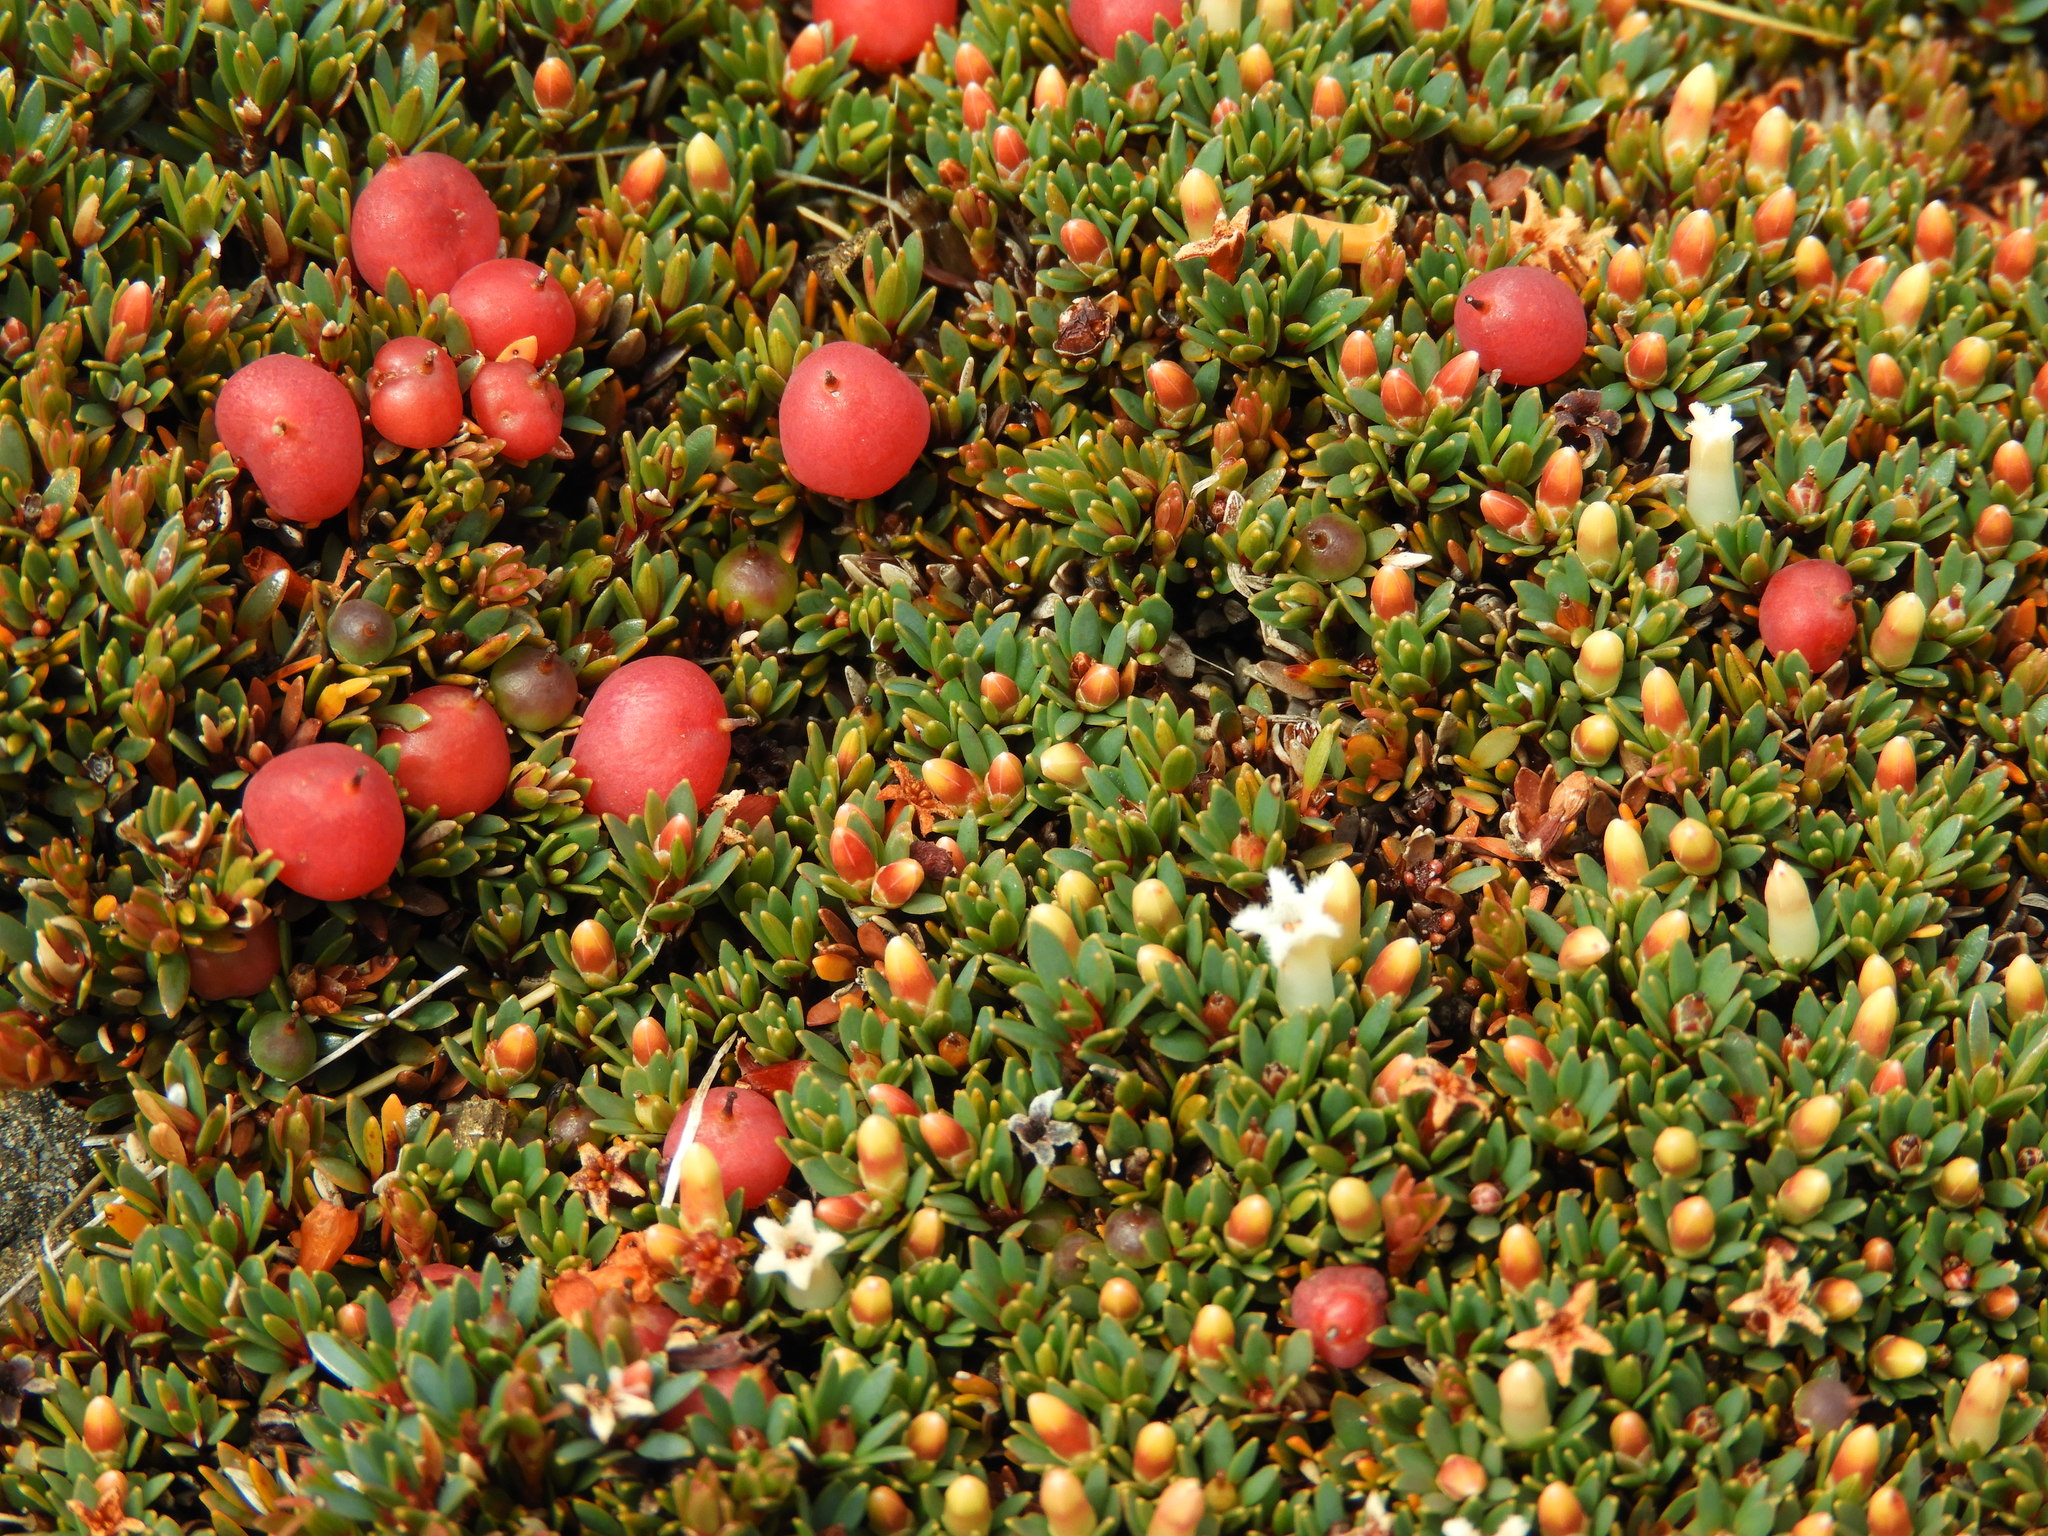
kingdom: Plantae
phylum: Tracheophyta
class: Magnoliopsida
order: Ericales
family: Ericaceae
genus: Pentachondra
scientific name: Pentachondra pumila
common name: Carpet-heath
